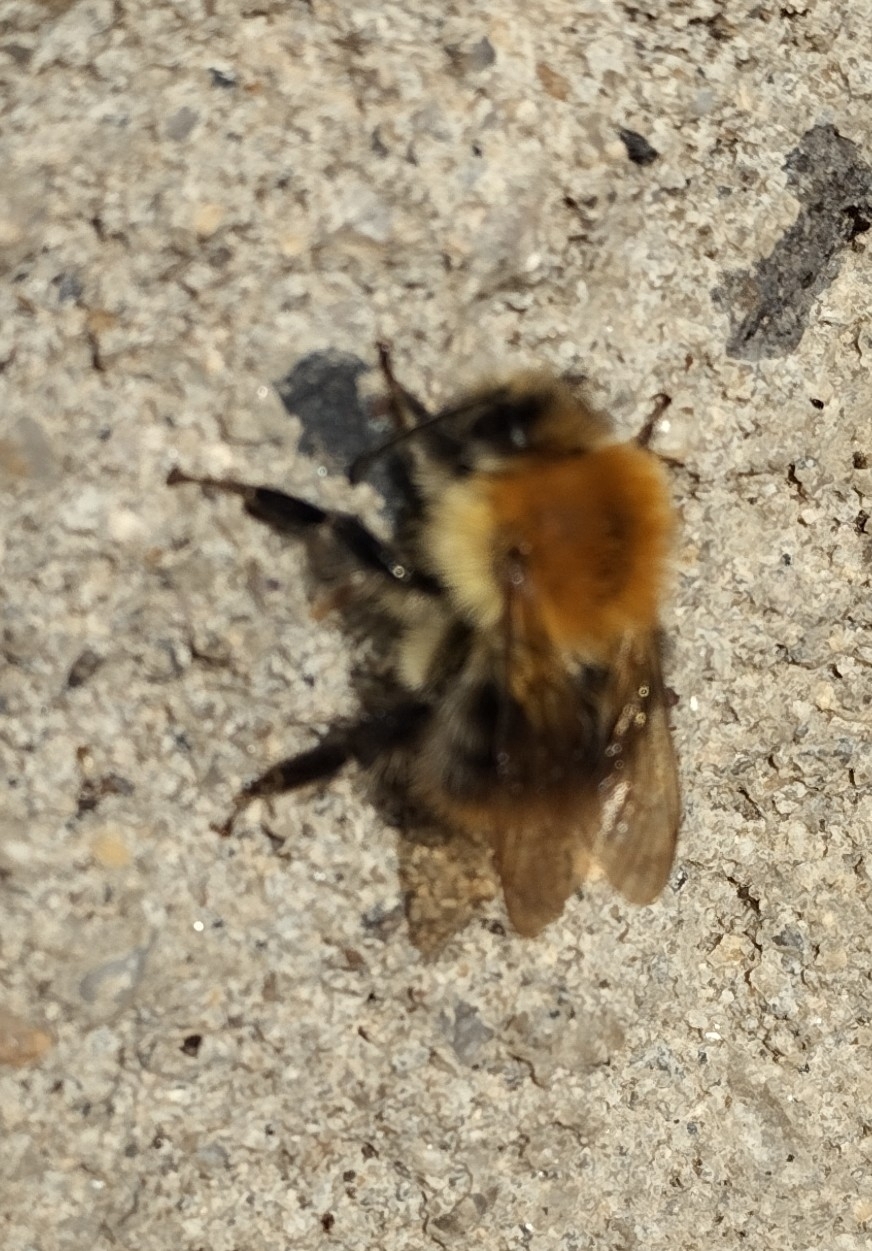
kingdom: Animalia
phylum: Arthropoda
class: Insecta
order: Hymenoptera
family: Apidae
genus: Bombus
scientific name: Bombus pascuorum
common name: Common carder bee
